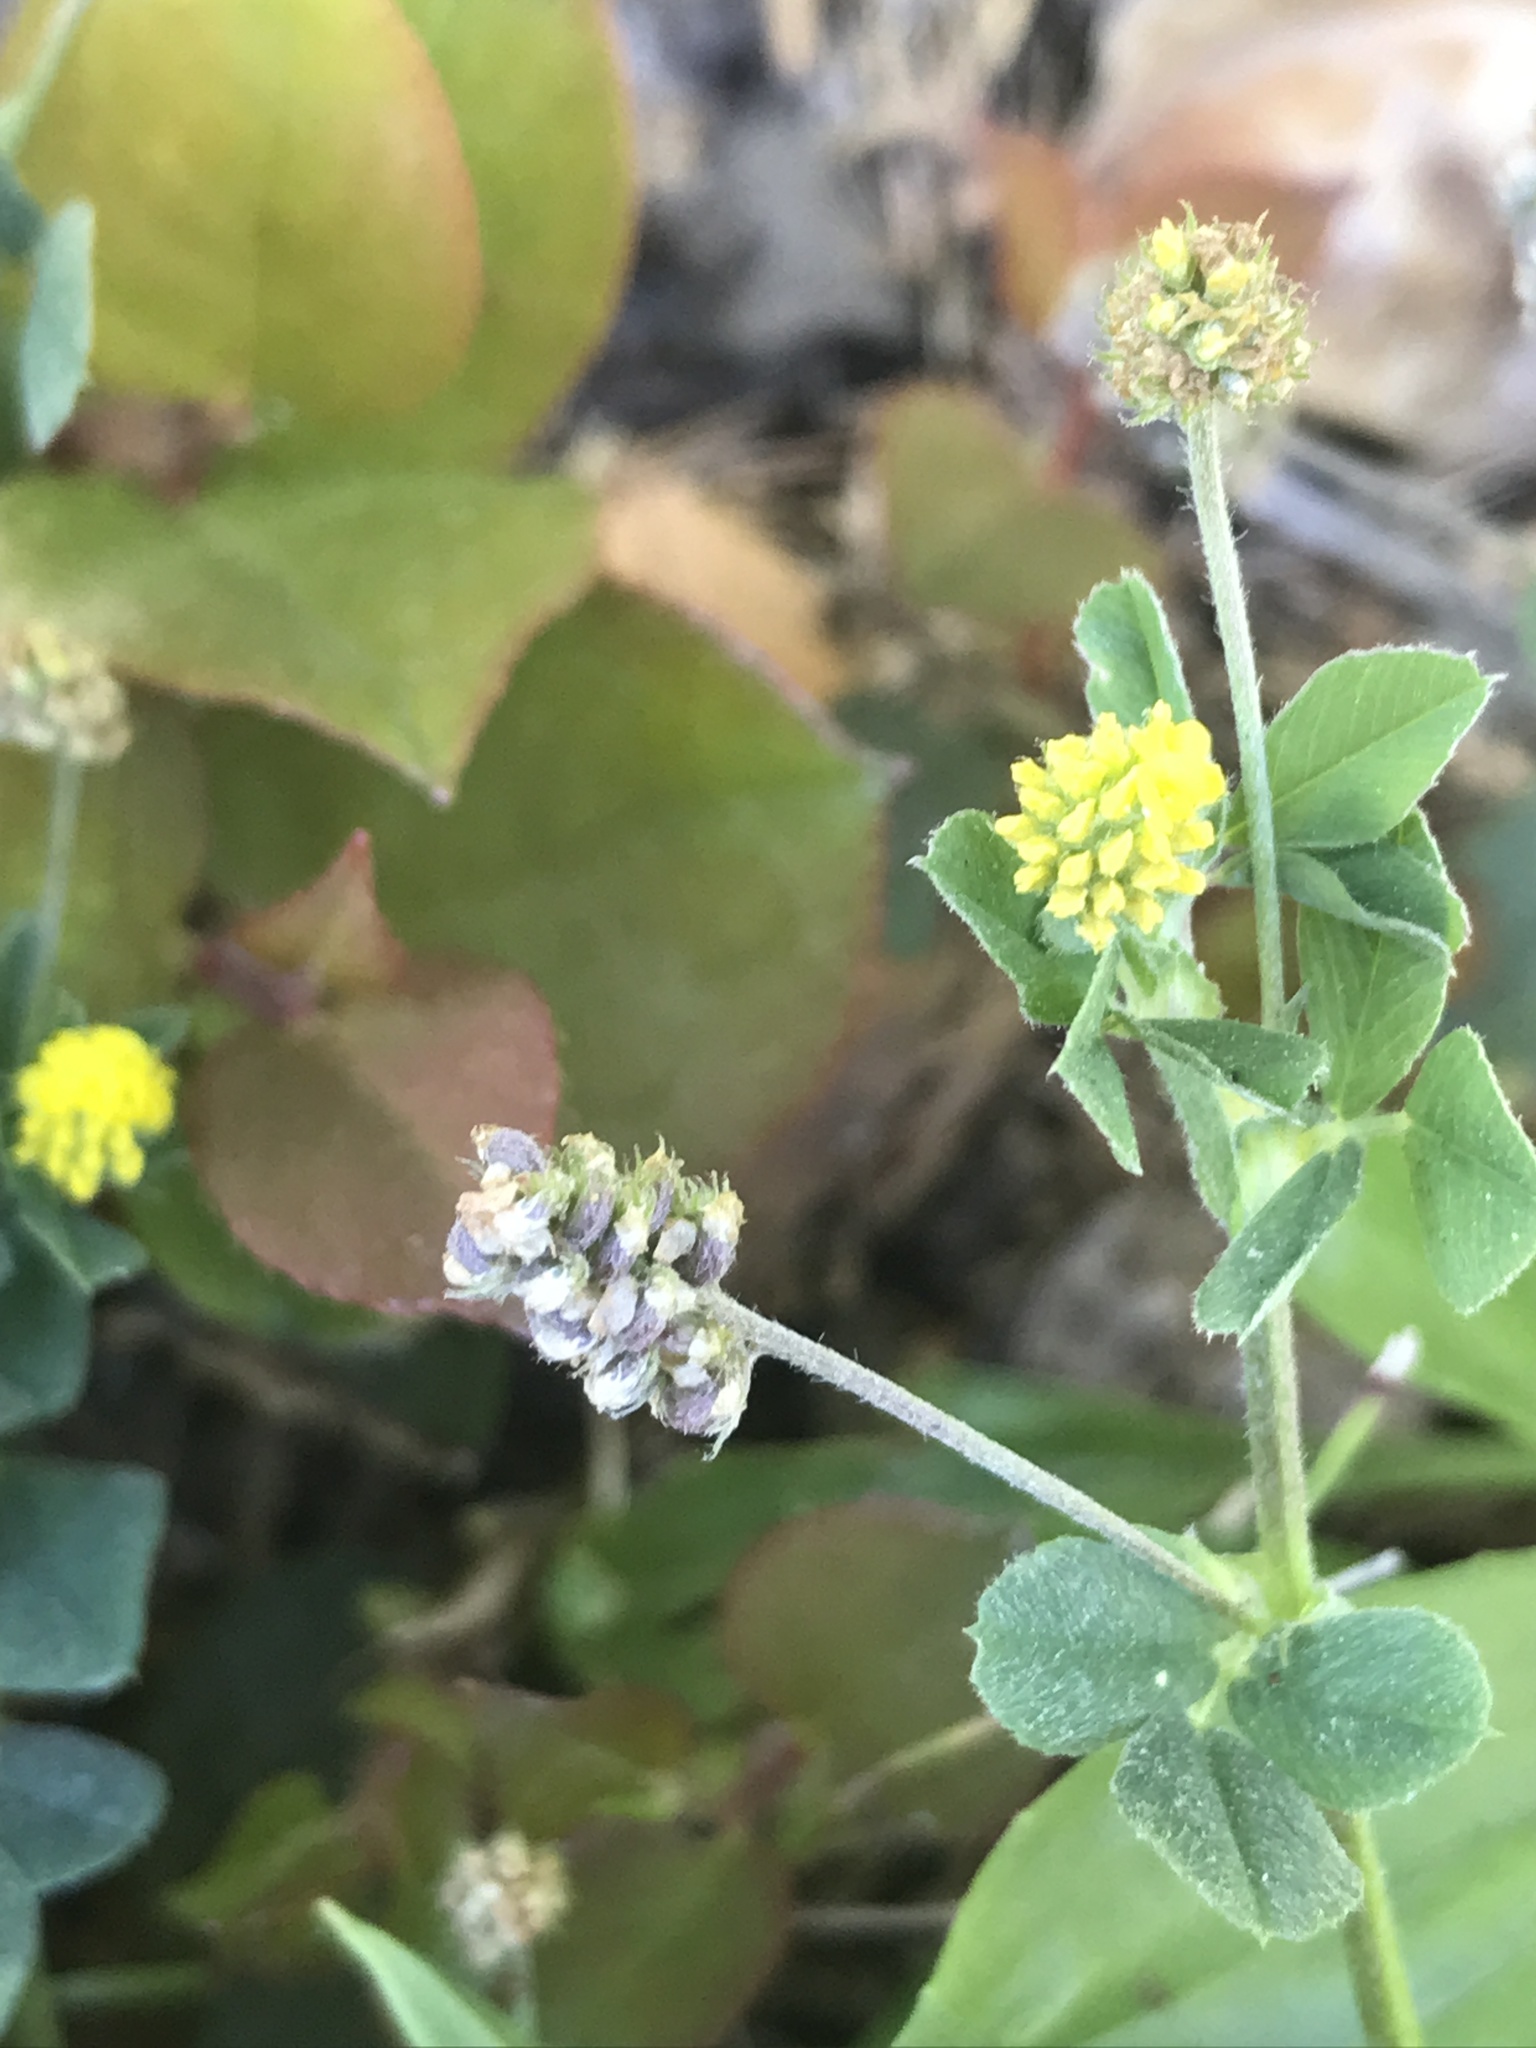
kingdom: Plantae
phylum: Tracheophyta
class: Magnoliopsida
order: Fabales
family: Fabaceae
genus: Medicago
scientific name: Medicago lupulina
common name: Black medick
